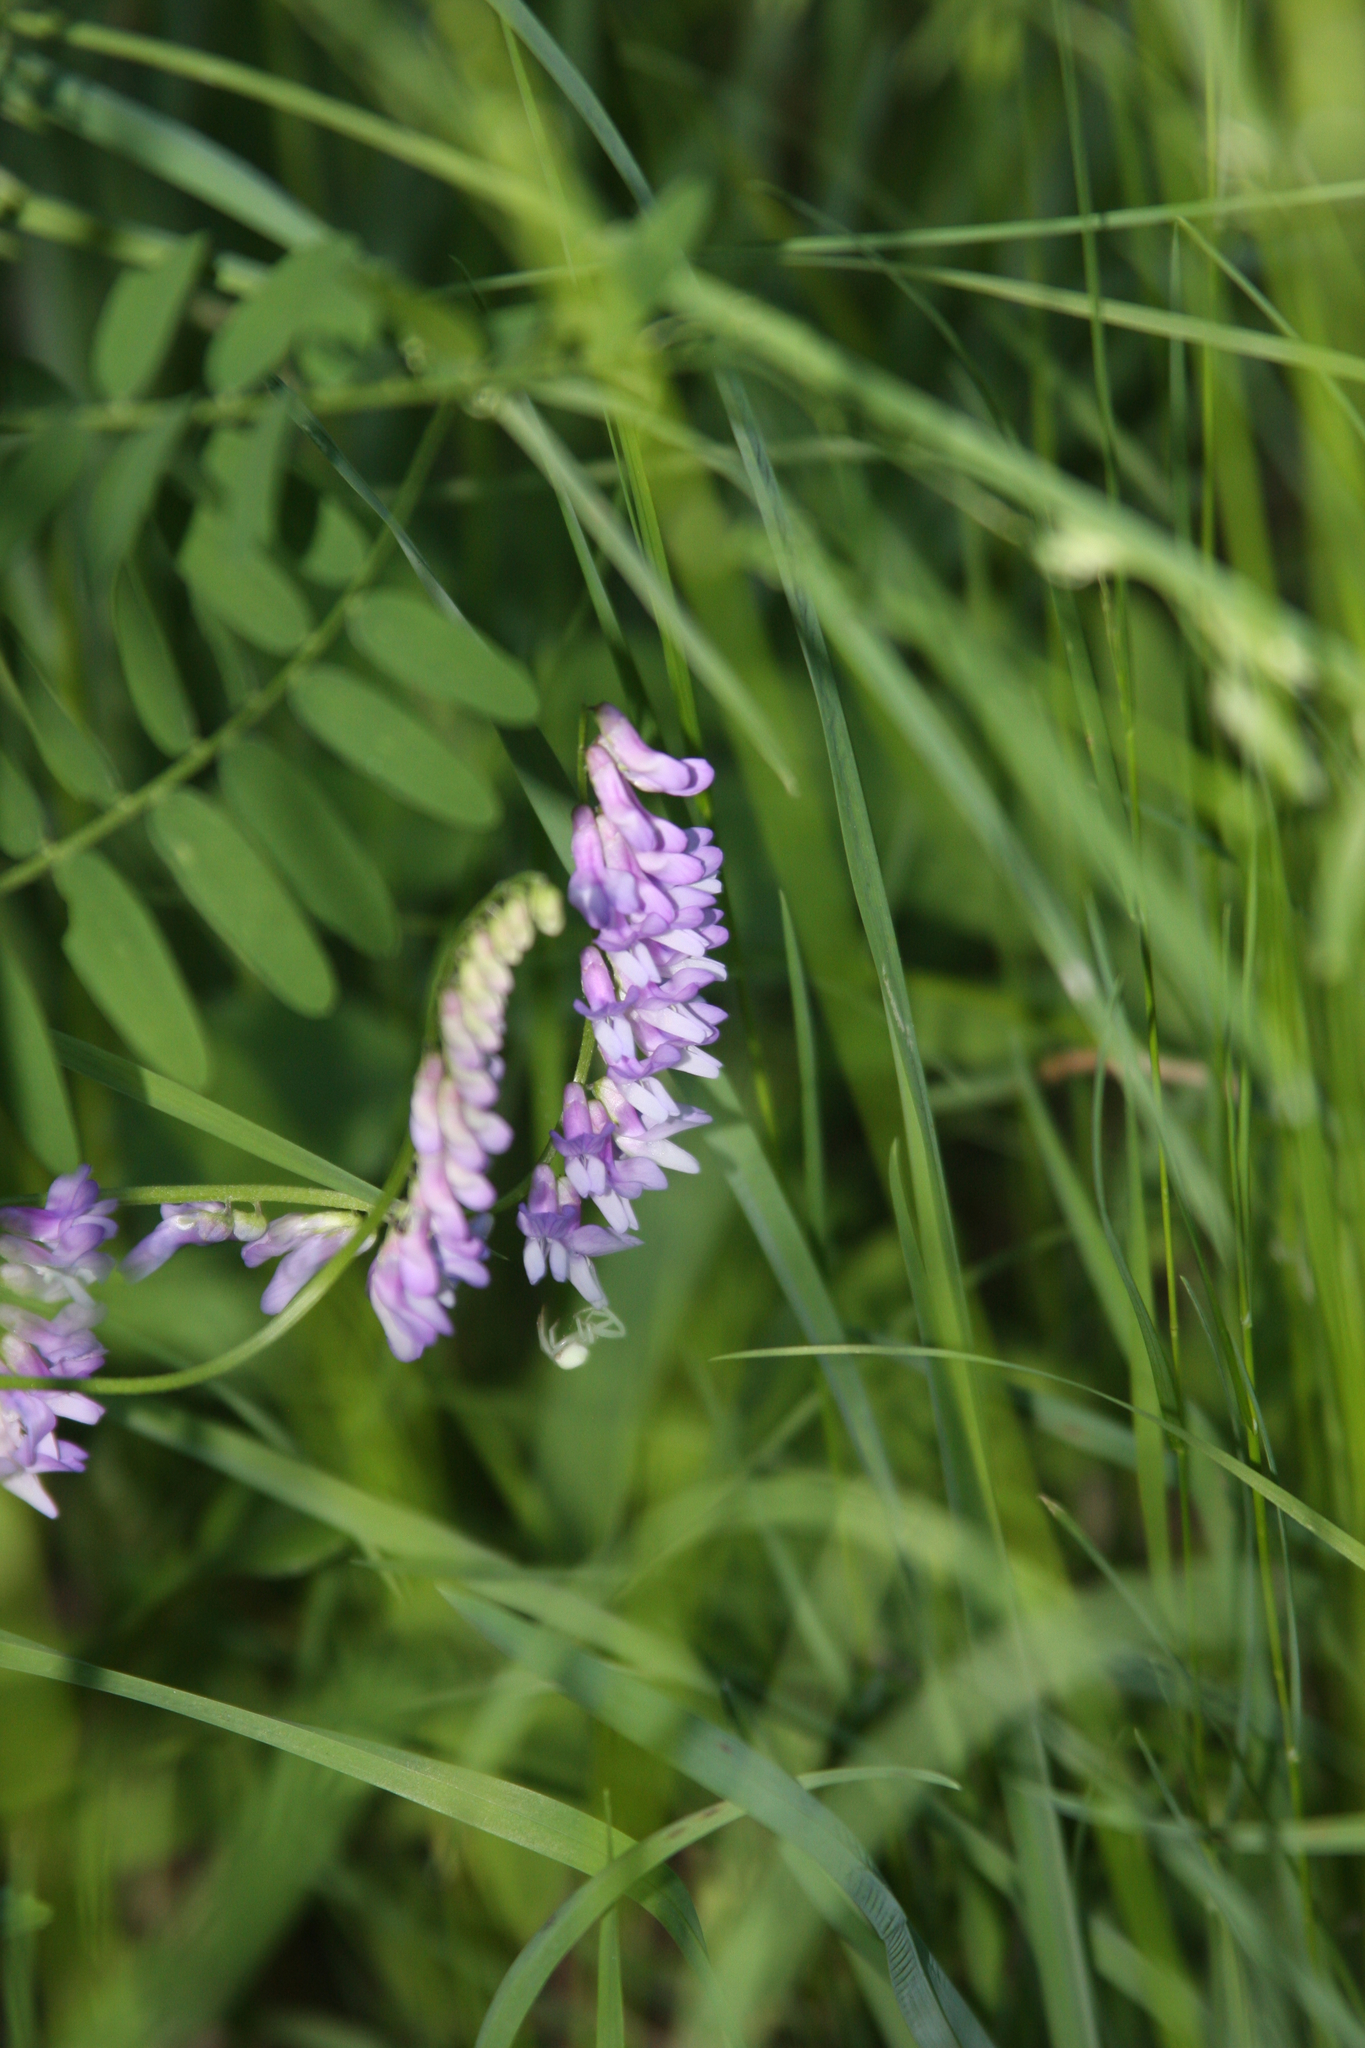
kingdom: Plantae
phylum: Tracheophyta
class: Magnoliopsida
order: Fabales
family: Fabaceae
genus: Vicia
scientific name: Vicia cracca
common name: Bird vetch
